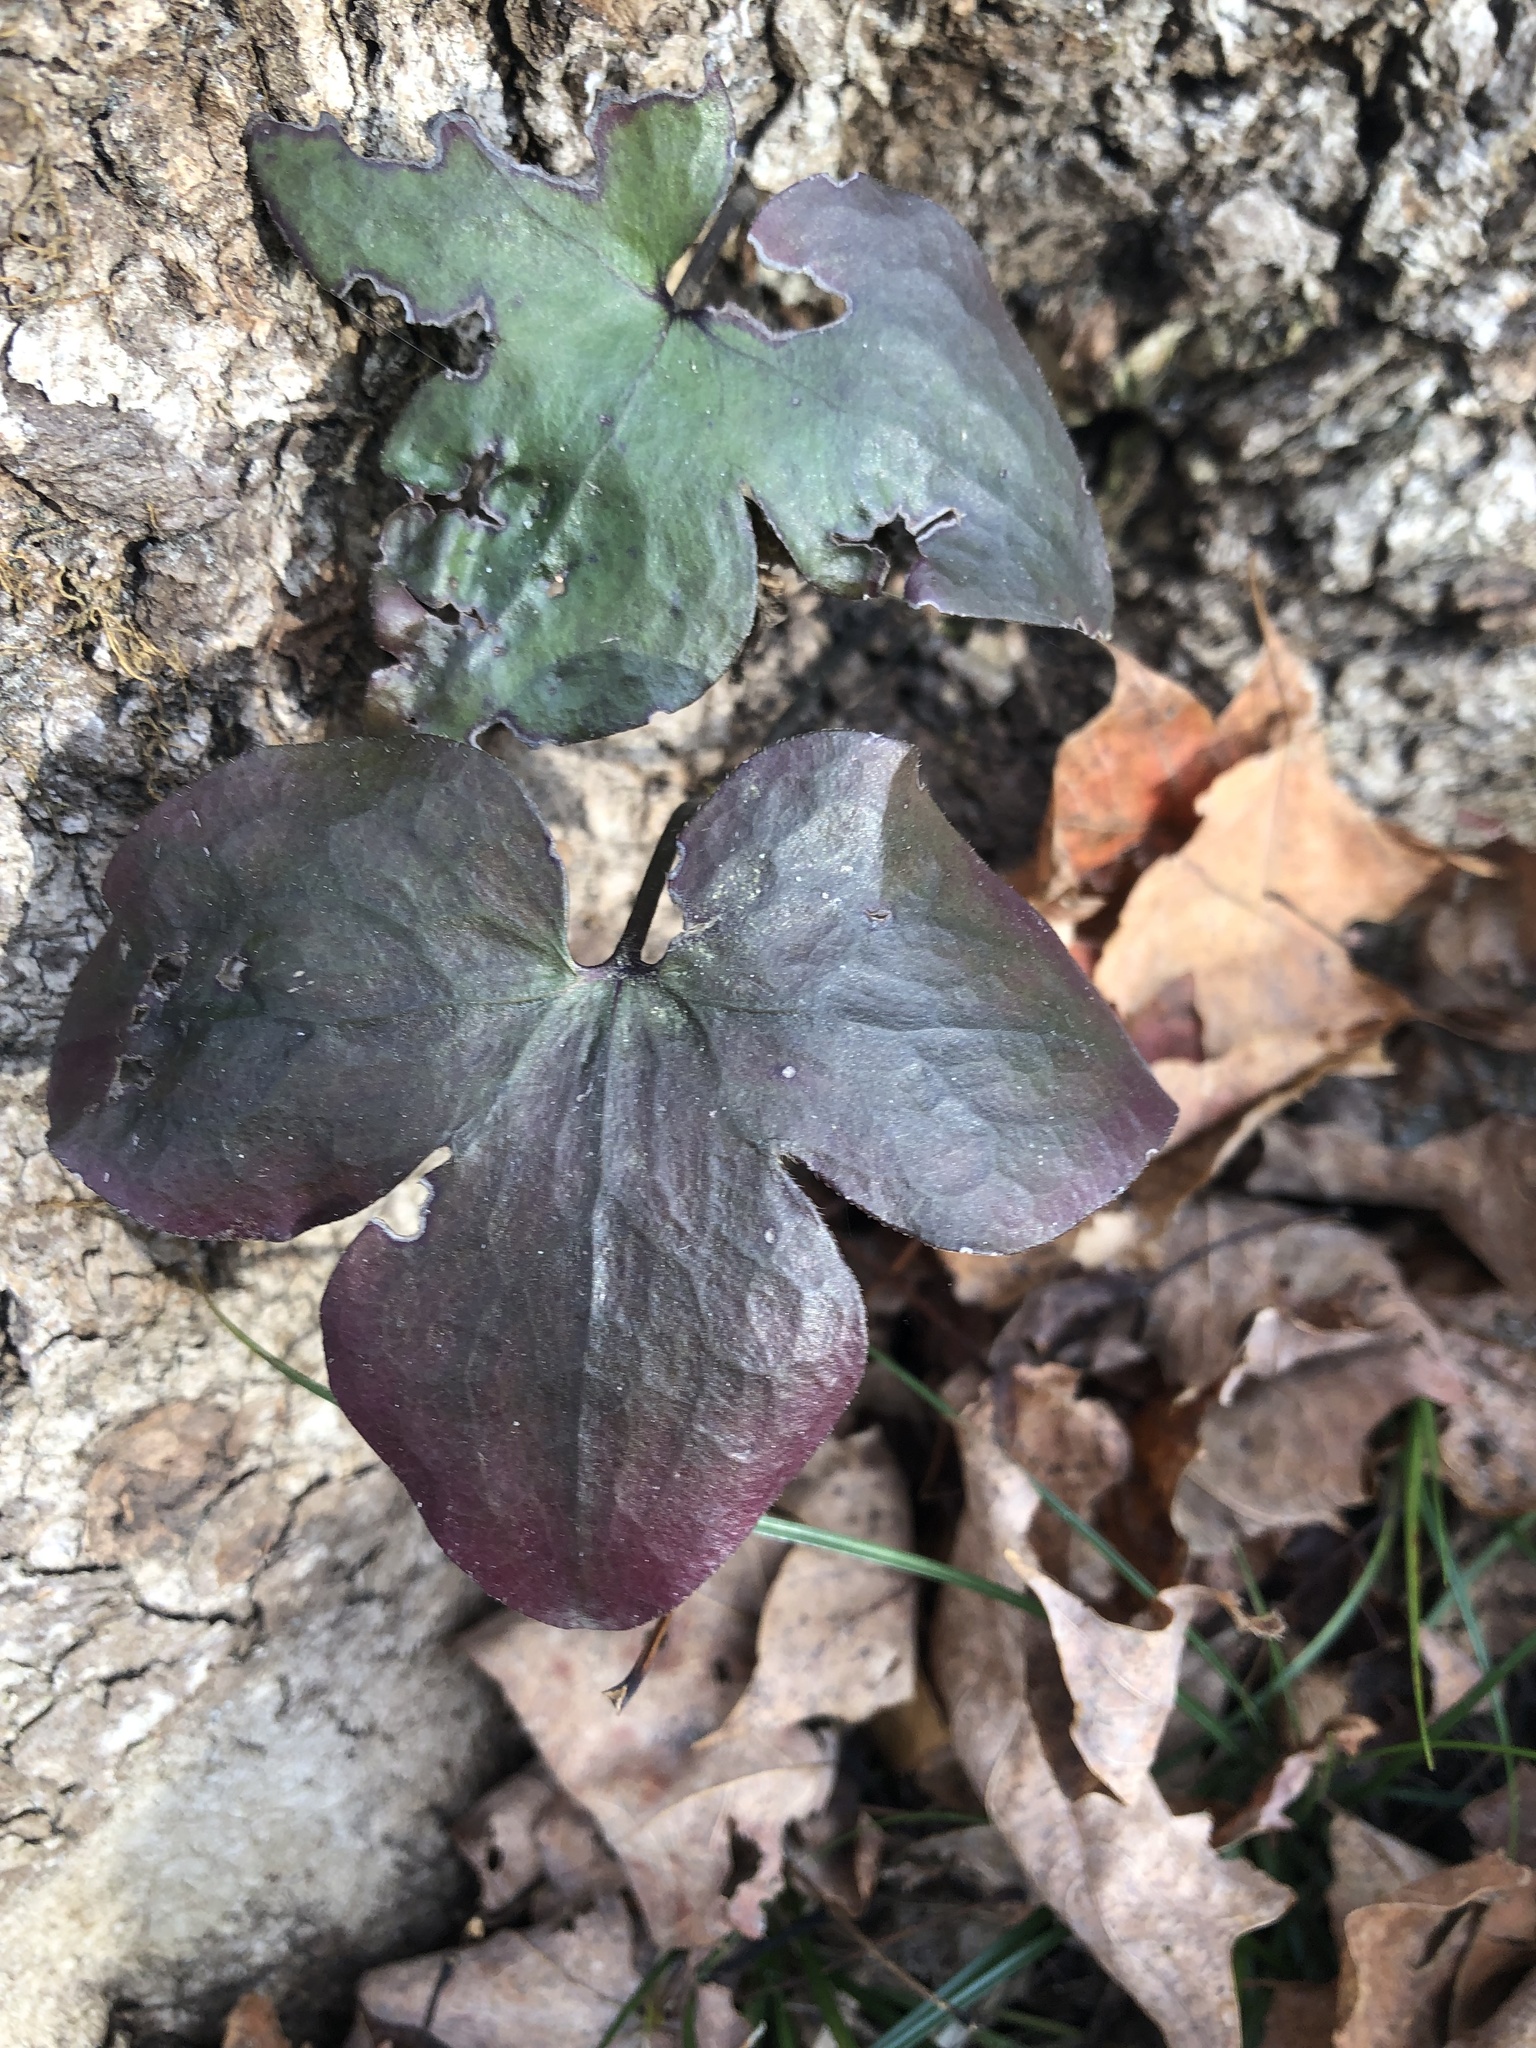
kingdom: Plantae
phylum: Tracheophyta
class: Magnoliopsida
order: Ranunculales
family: Ranunculaceae
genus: Hepatica
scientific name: Hepatica acutiloba
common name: Sharp-lobed hepatica
